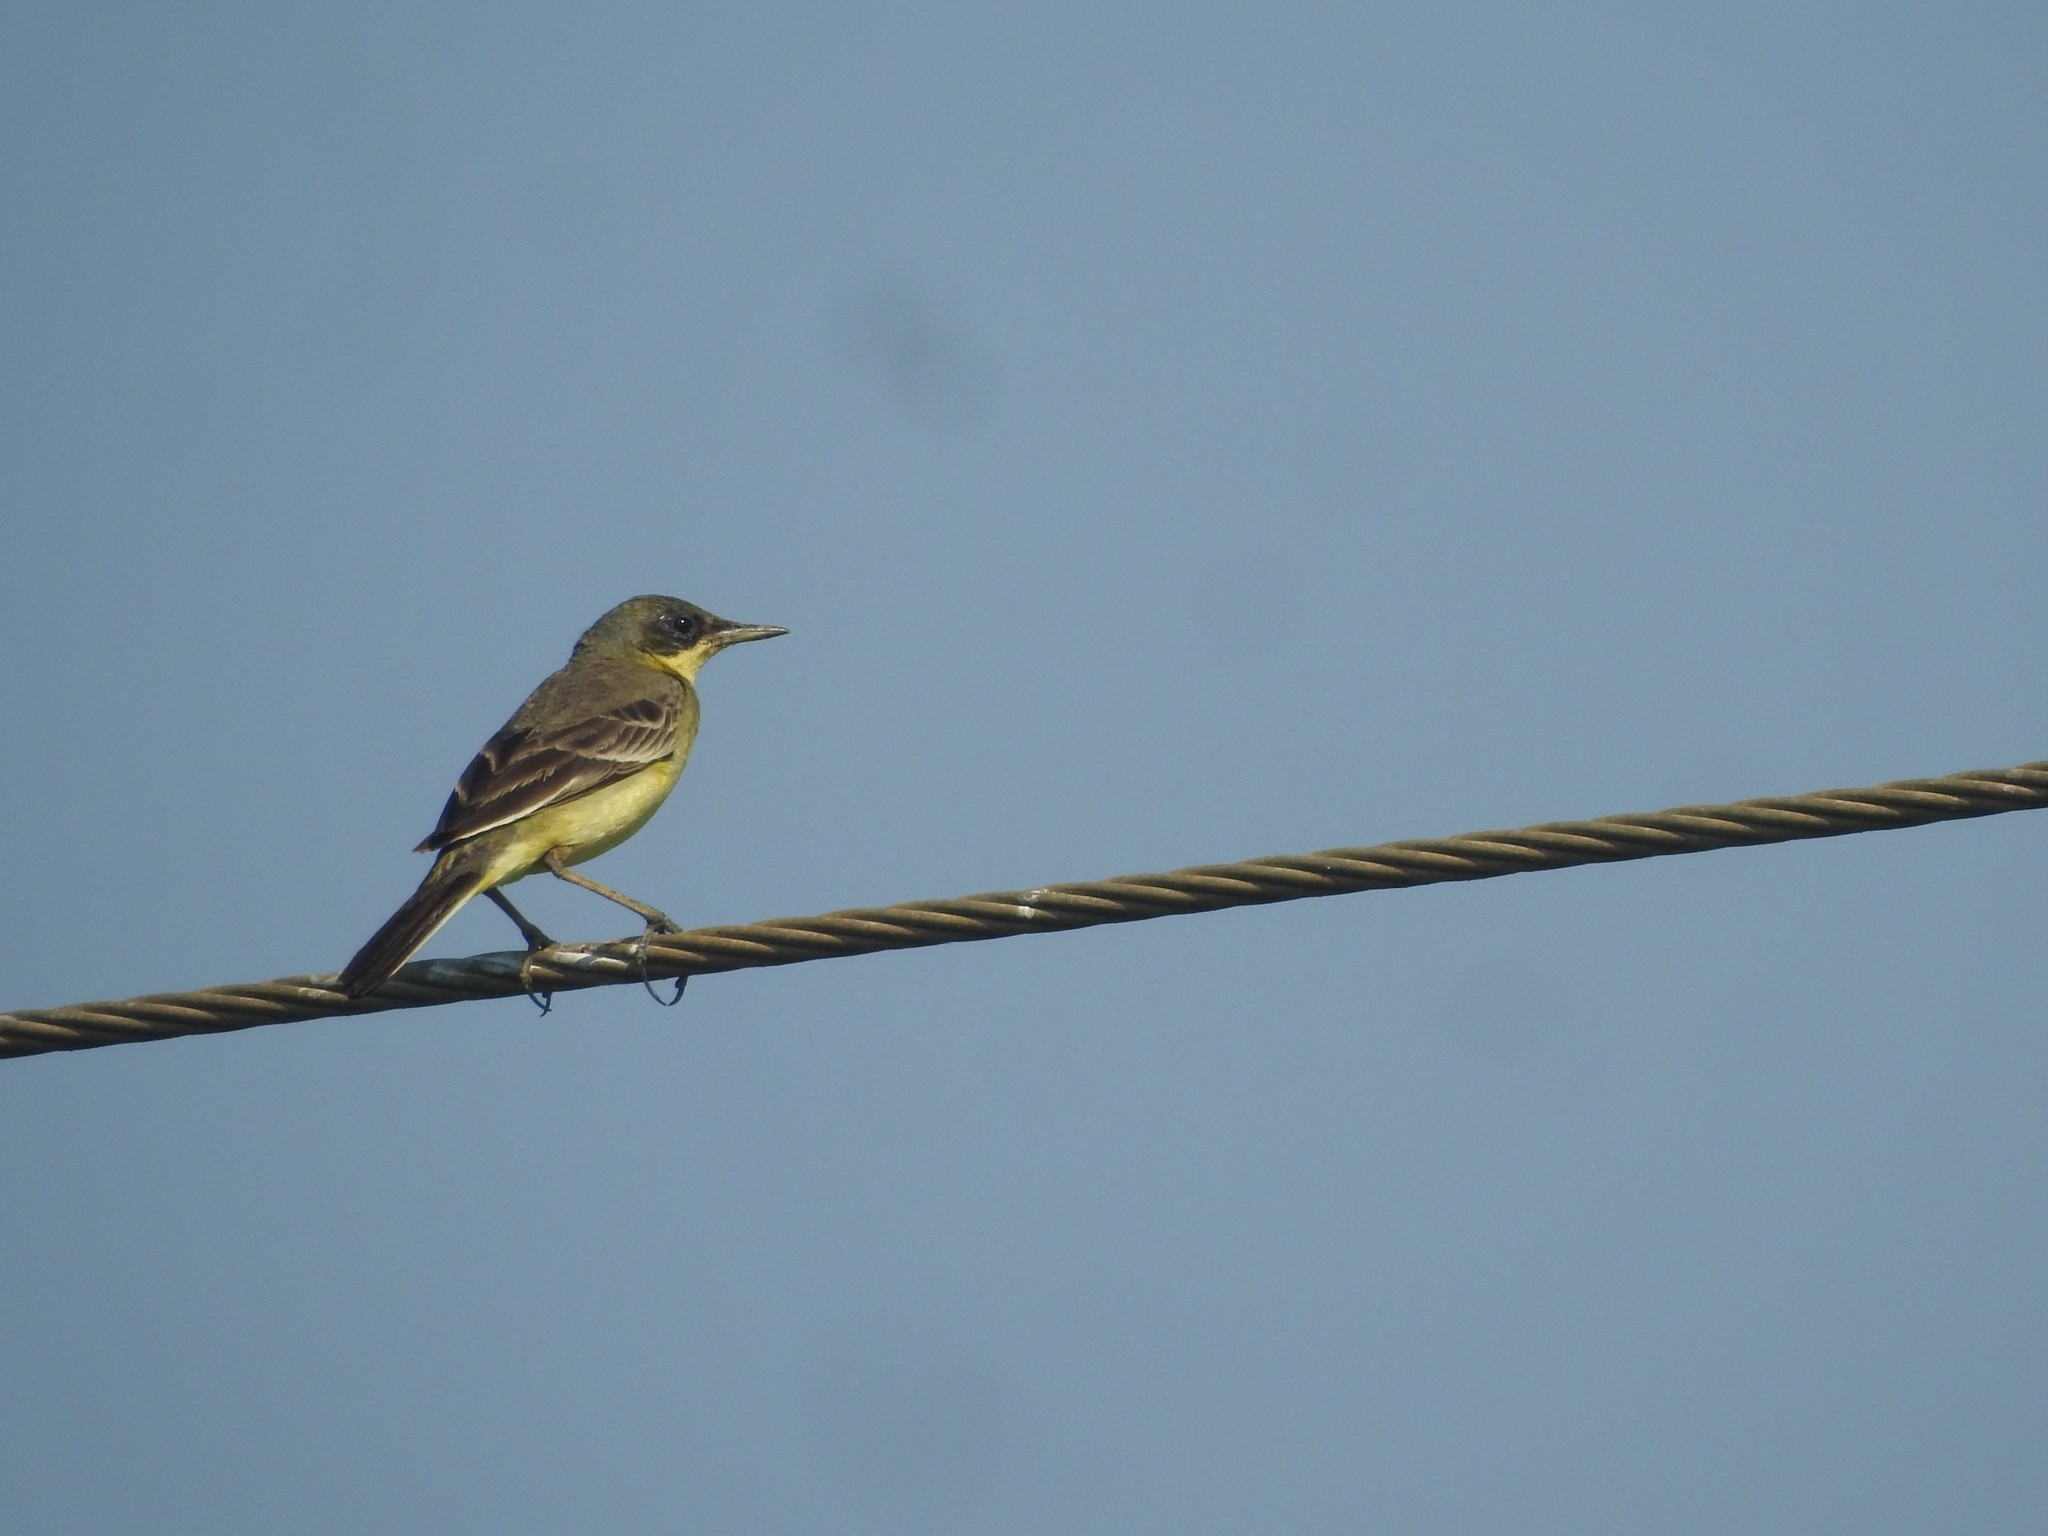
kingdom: Animalia
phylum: Chordata
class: Aves
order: Passeriformes
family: Motacillidae
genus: Motacilla
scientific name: Motacilla flava
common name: Western yellow wagtail
